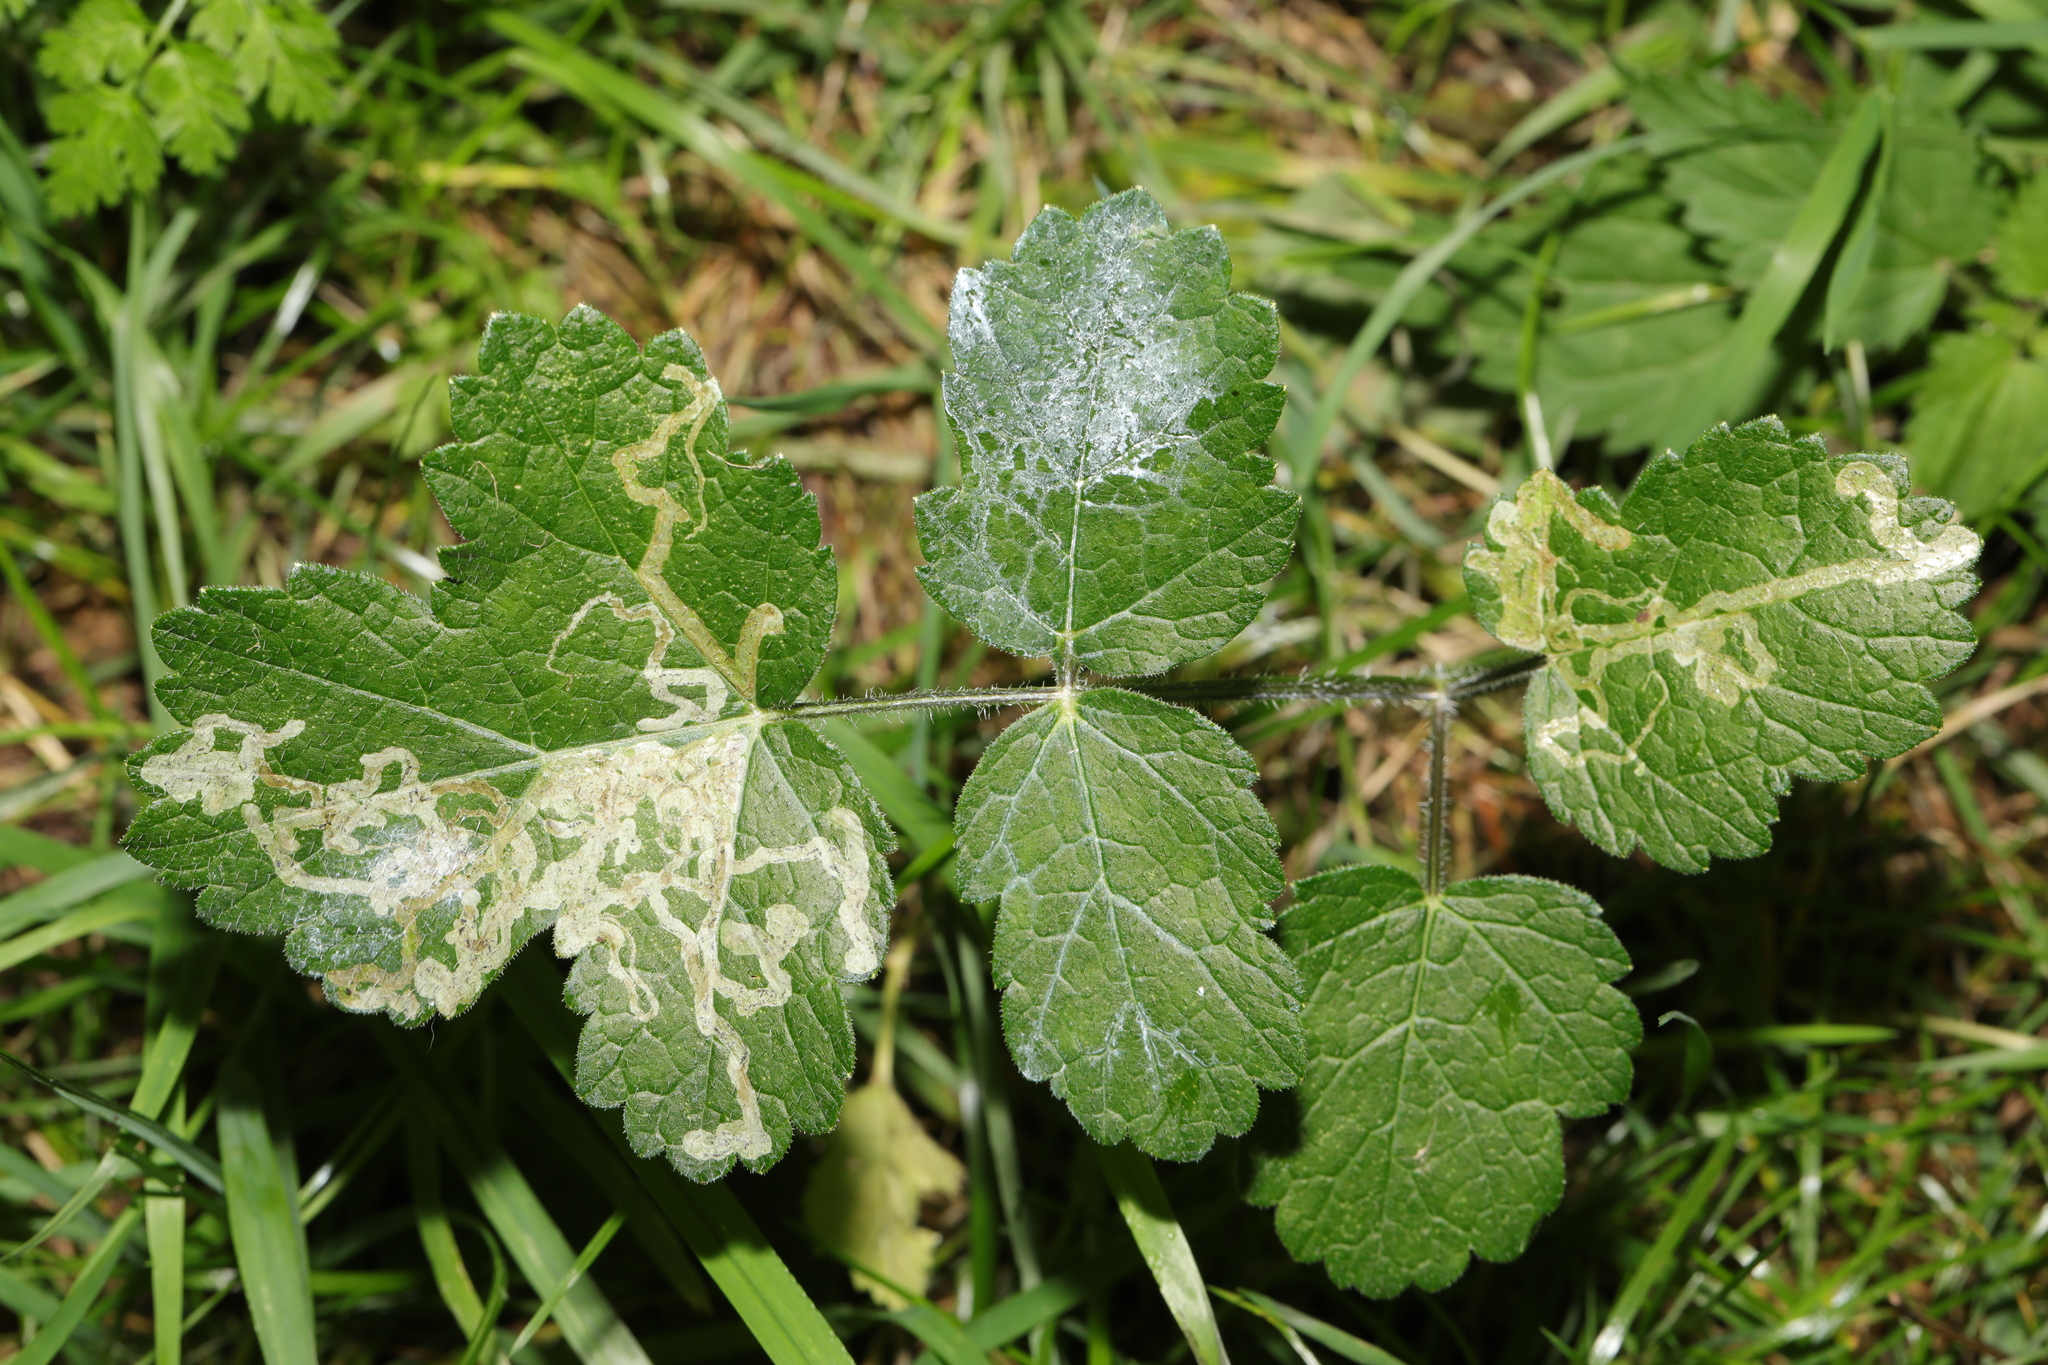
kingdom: Plantae
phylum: Tracheophyta
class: Magnoliopsida
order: Apiales
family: Apiaceae
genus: Heracleum
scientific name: Heracleum sphondylium
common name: Hogweed
